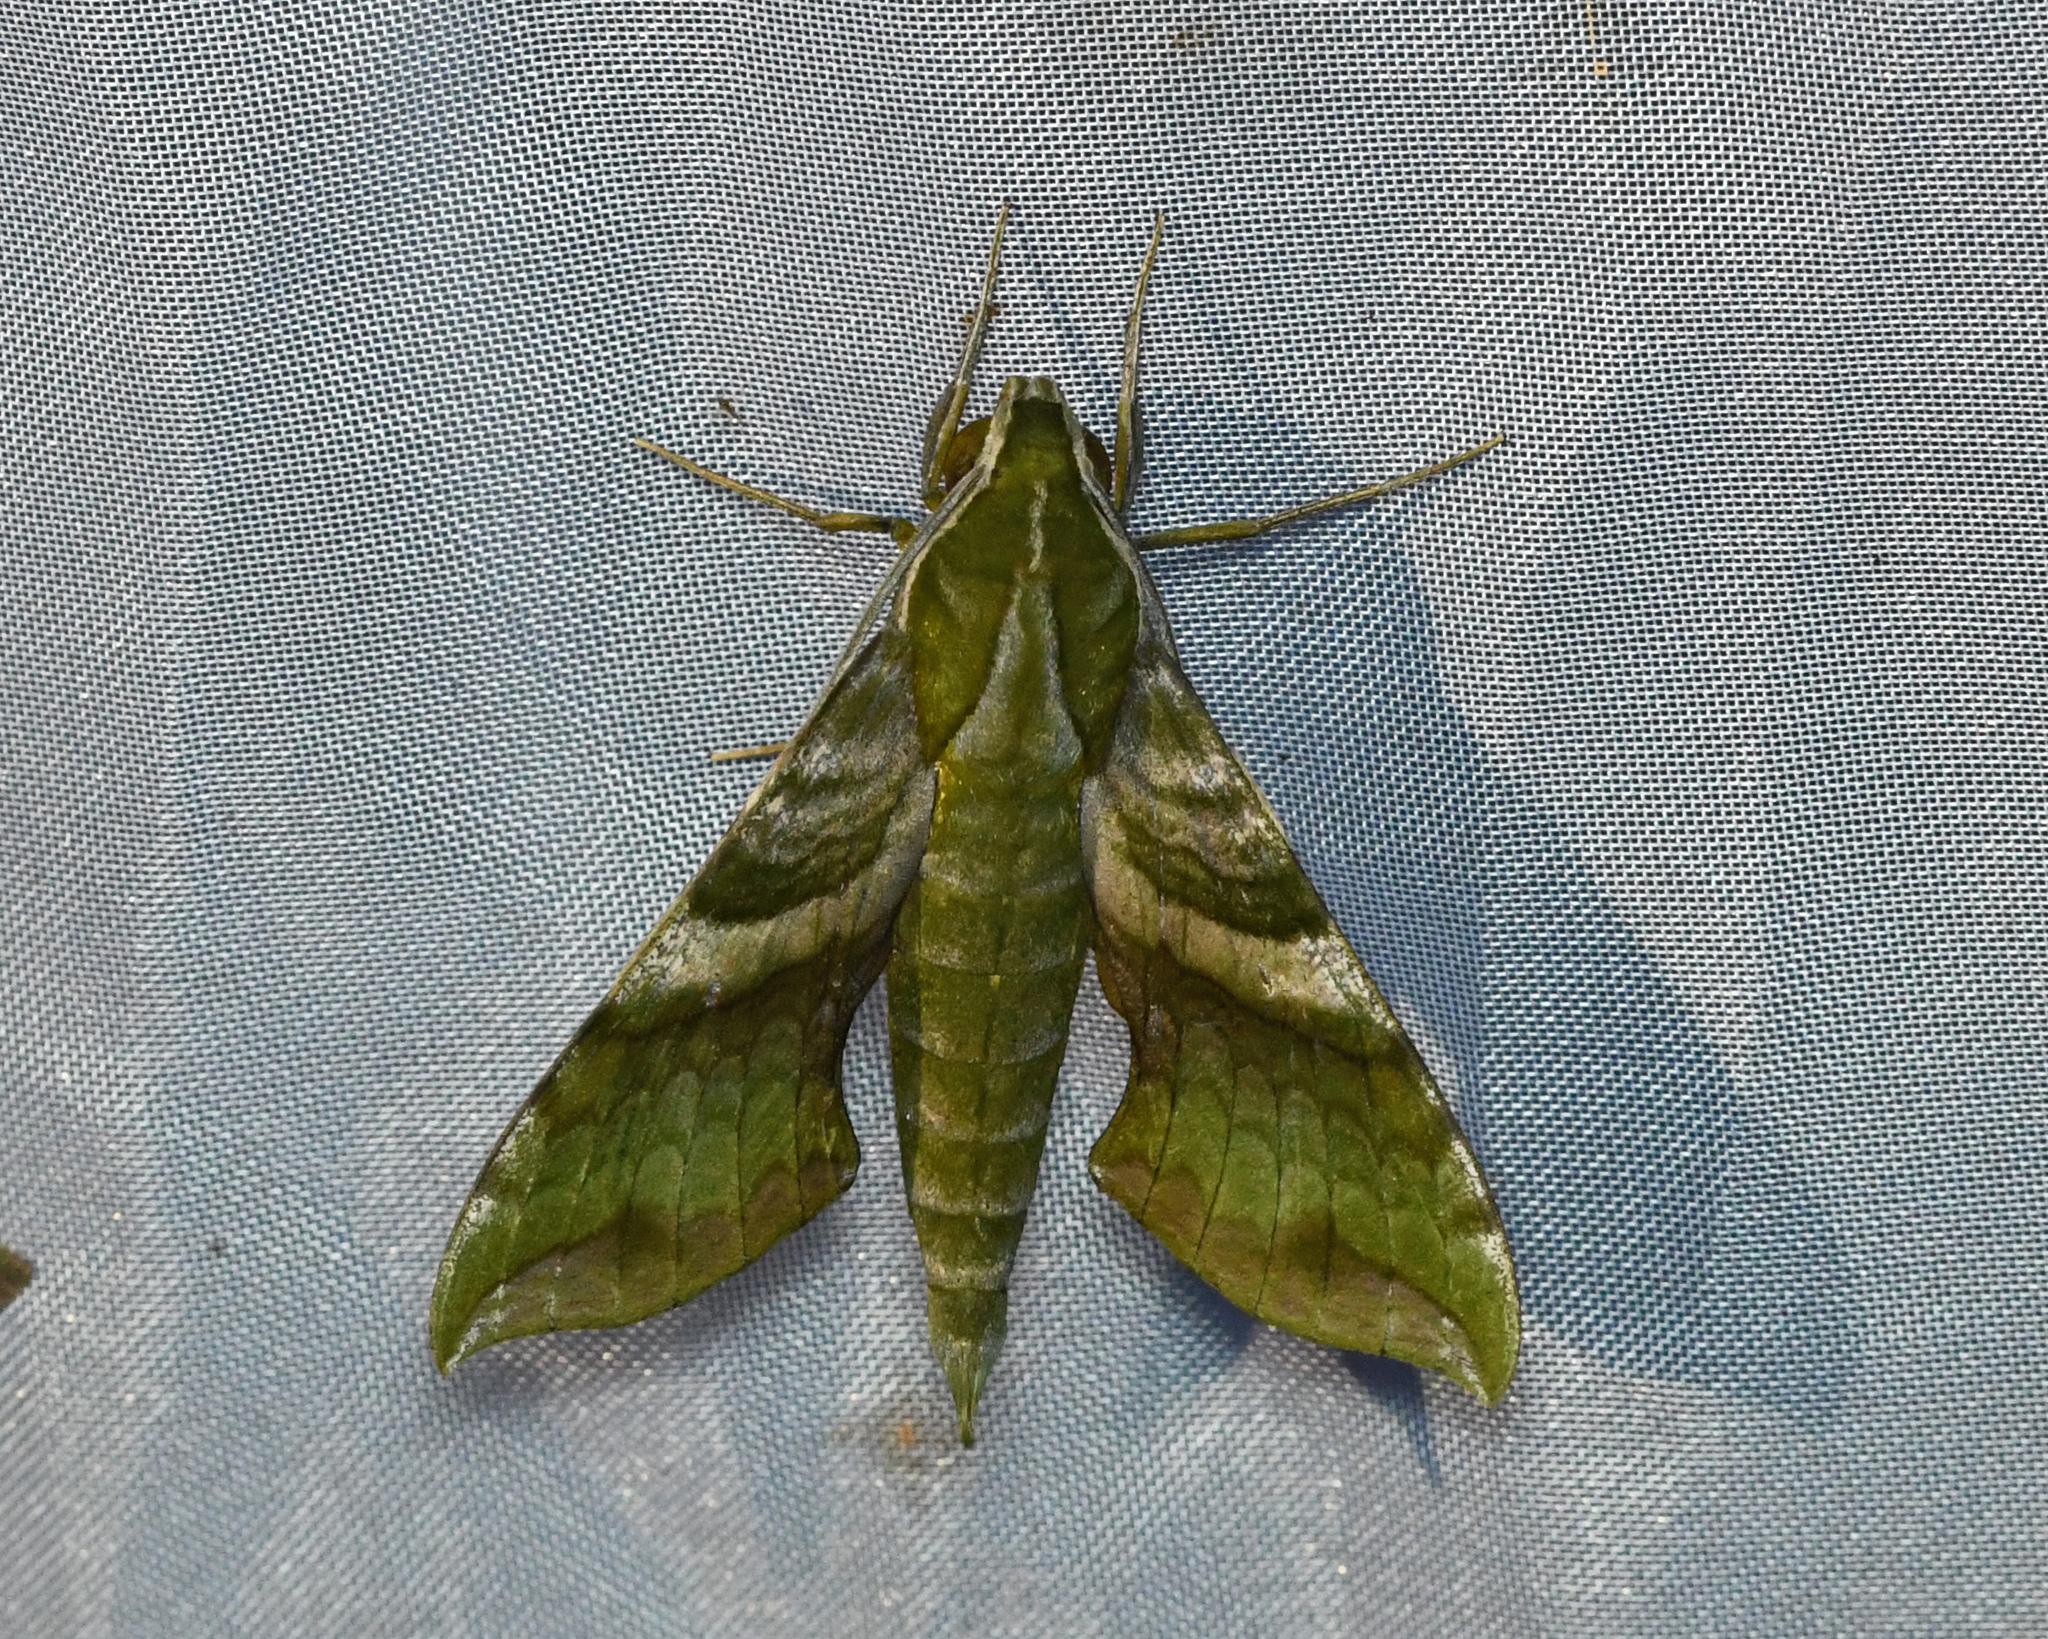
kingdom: Animalia
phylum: Arthropoda
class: Insecta
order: Lepidoptera
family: Sphingidae
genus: Xylophanes
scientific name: Xylophanes pluto
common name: Pluto sphinx
